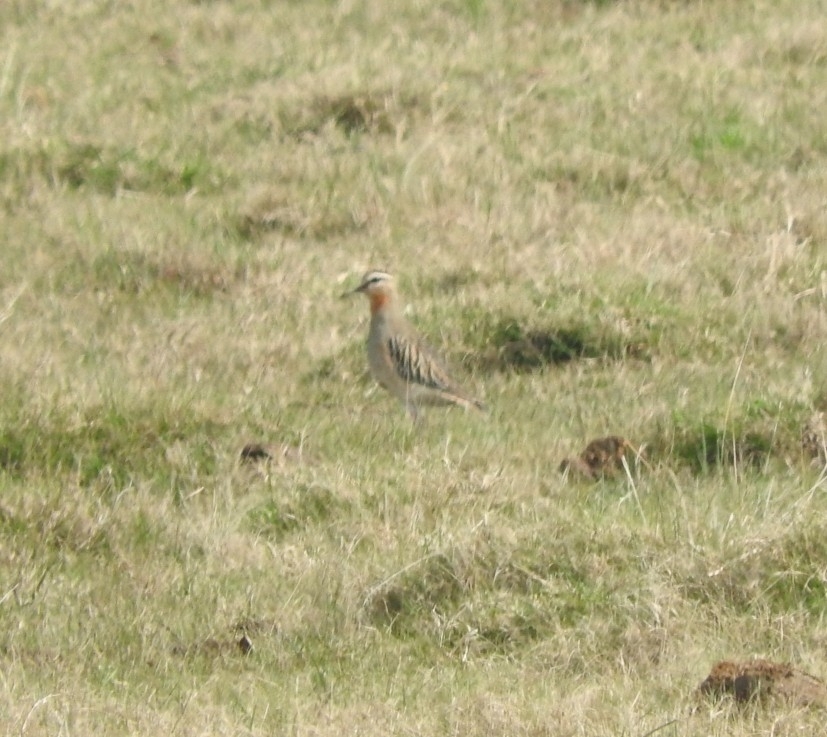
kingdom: Animalia
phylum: Chordata
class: Aves
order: Charadriiformes
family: Charadriidae
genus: Oreopholus
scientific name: Oreopholus ruficollis
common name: Tawny-throated dotterel
